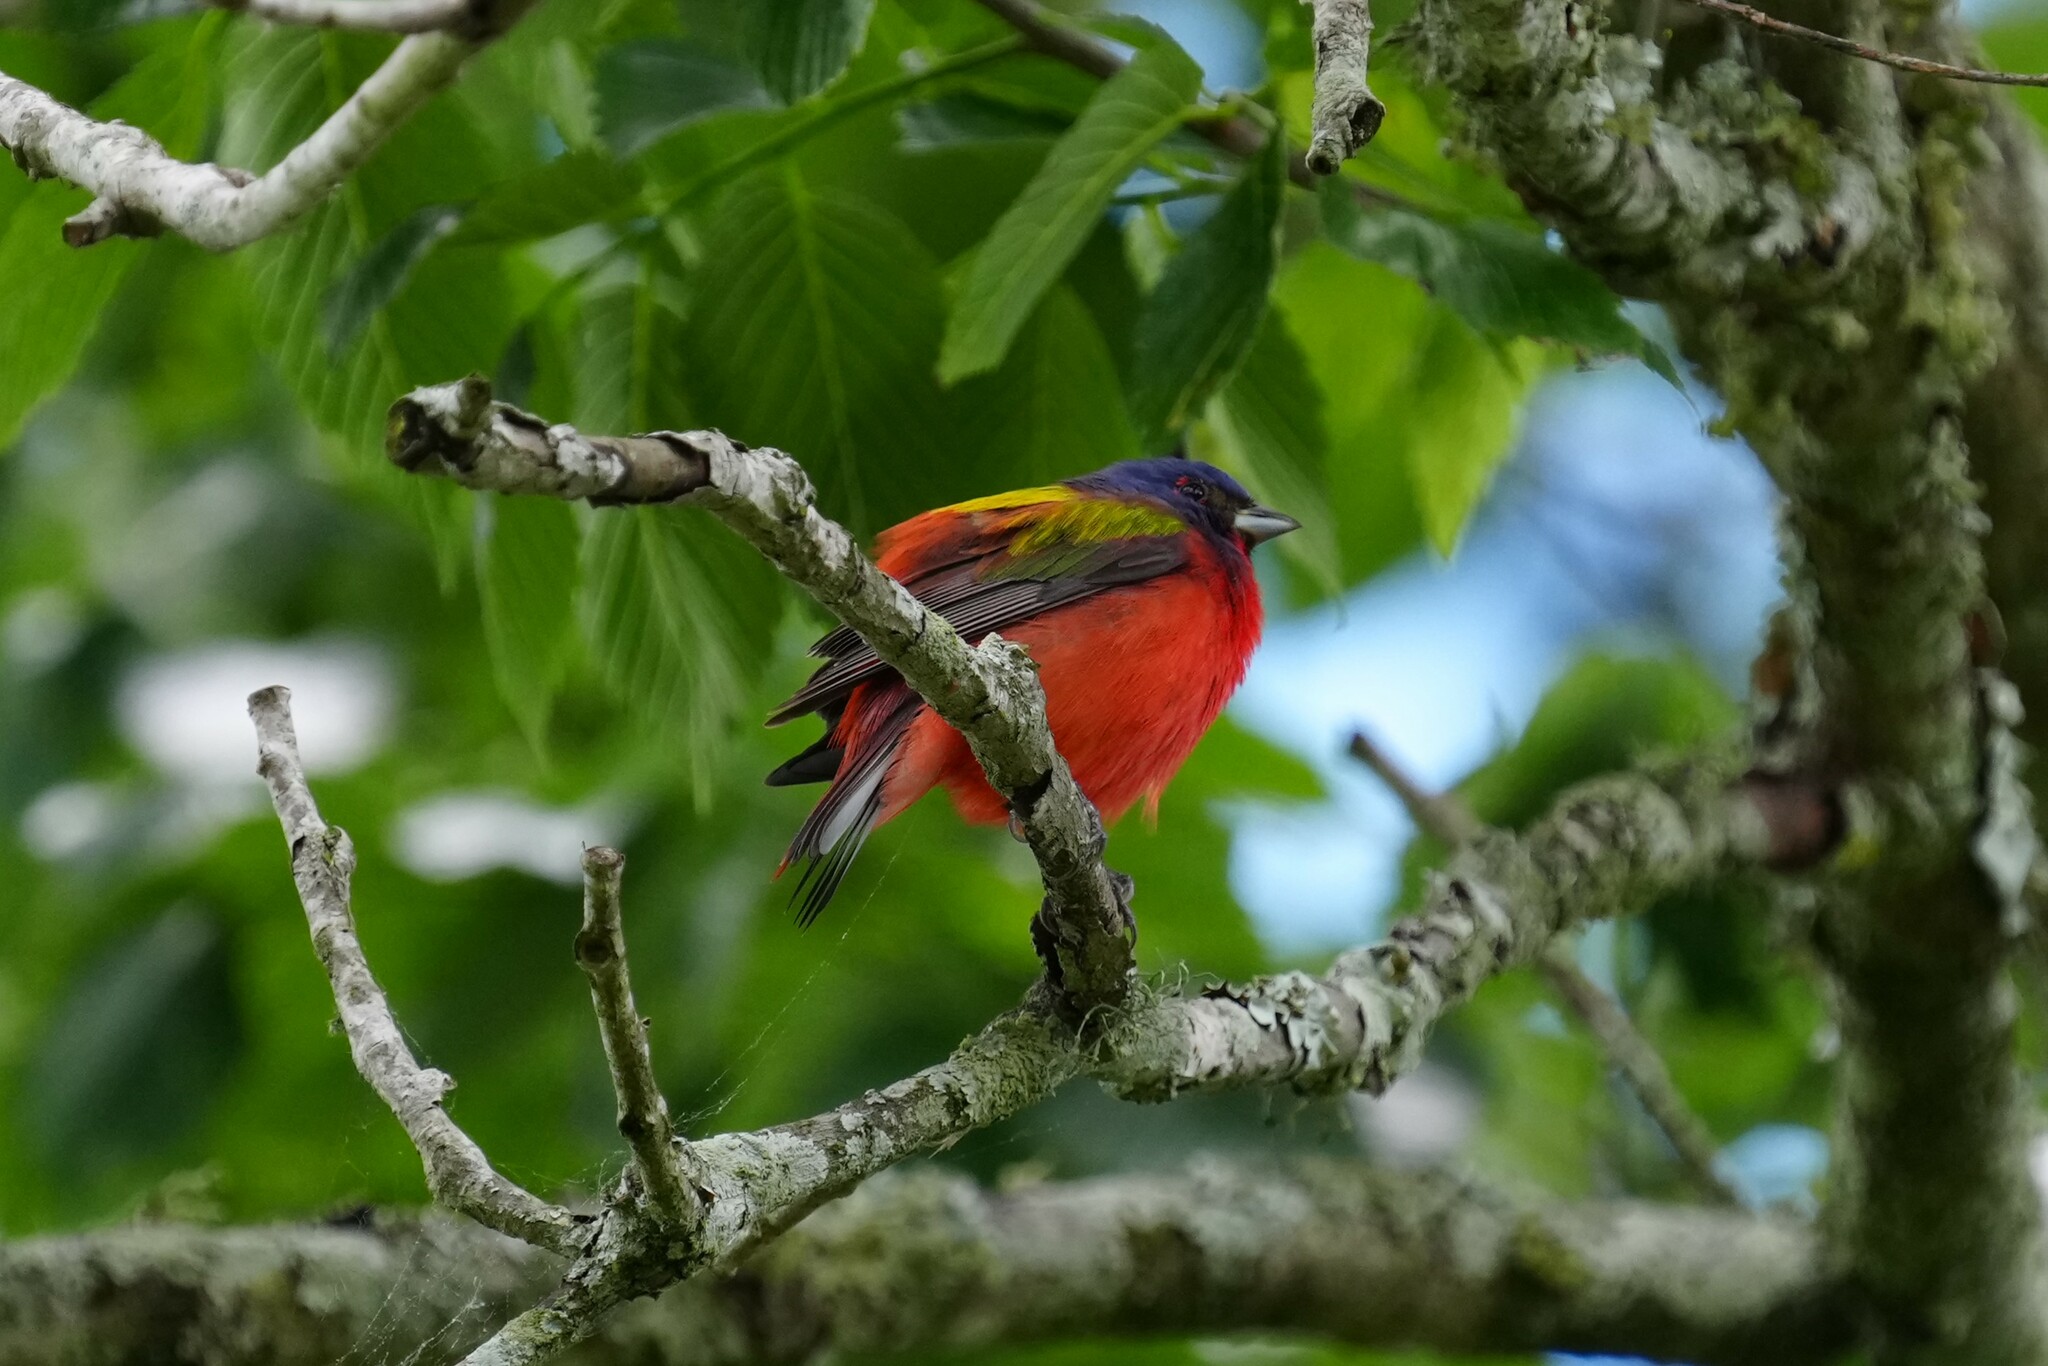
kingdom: Animalia
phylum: Chordata
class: Aves
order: Passeriformes
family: Cardinalidae
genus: Passerina
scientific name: Passerina ciris
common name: Painted bunting
